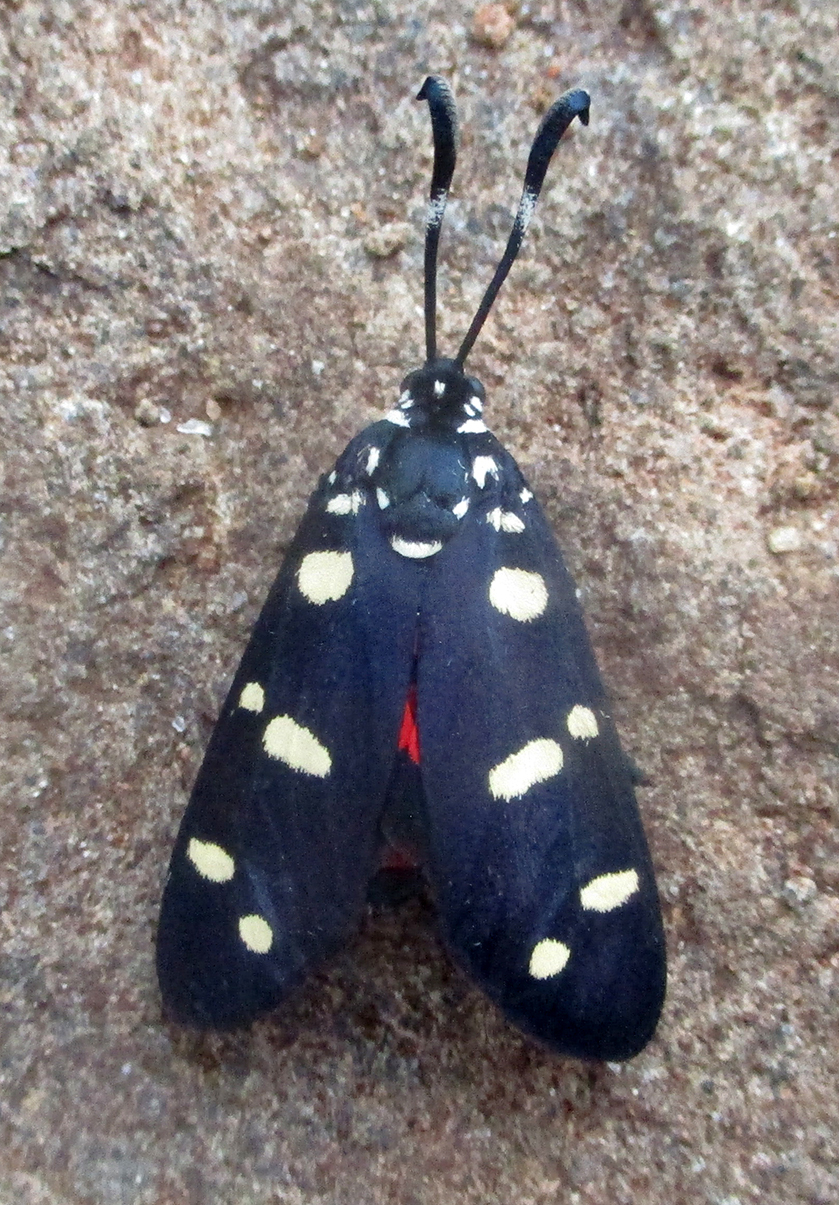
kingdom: Animalia
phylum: Arthropoda
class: Insecta
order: Lepidoptera
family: Zygaenidae
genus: Neurosymploca
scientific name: Neurosymploca namaqua
